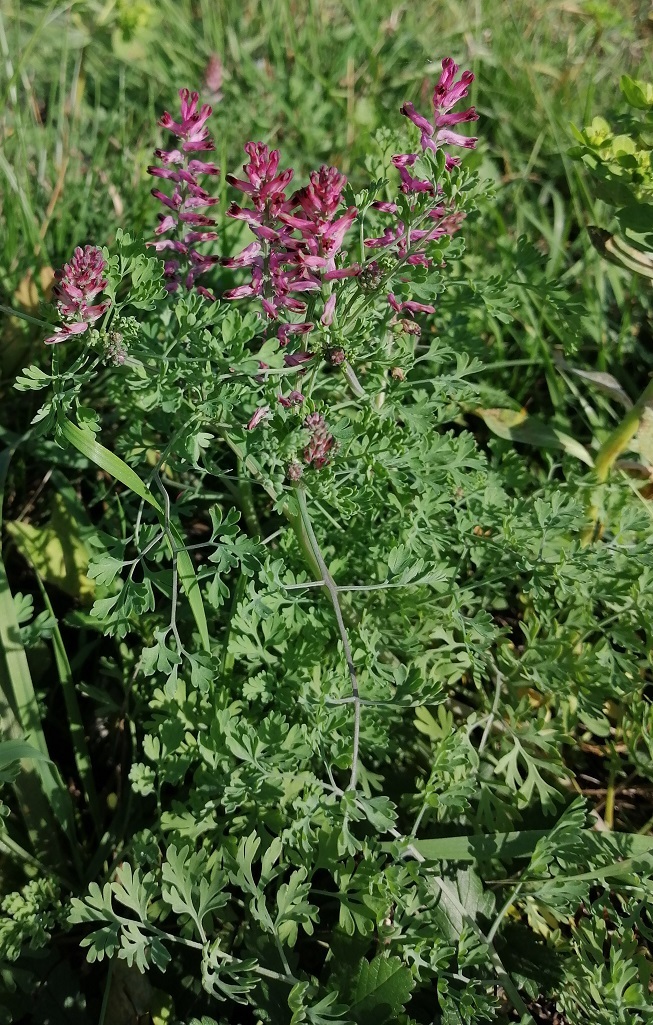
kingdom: Plantae
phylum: Tracheophyta
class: Magnoliopsida
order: Ranunculales
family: Papaveraceae
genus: Fumaria
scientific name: Fumaria officinalis
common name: Common fumitory
